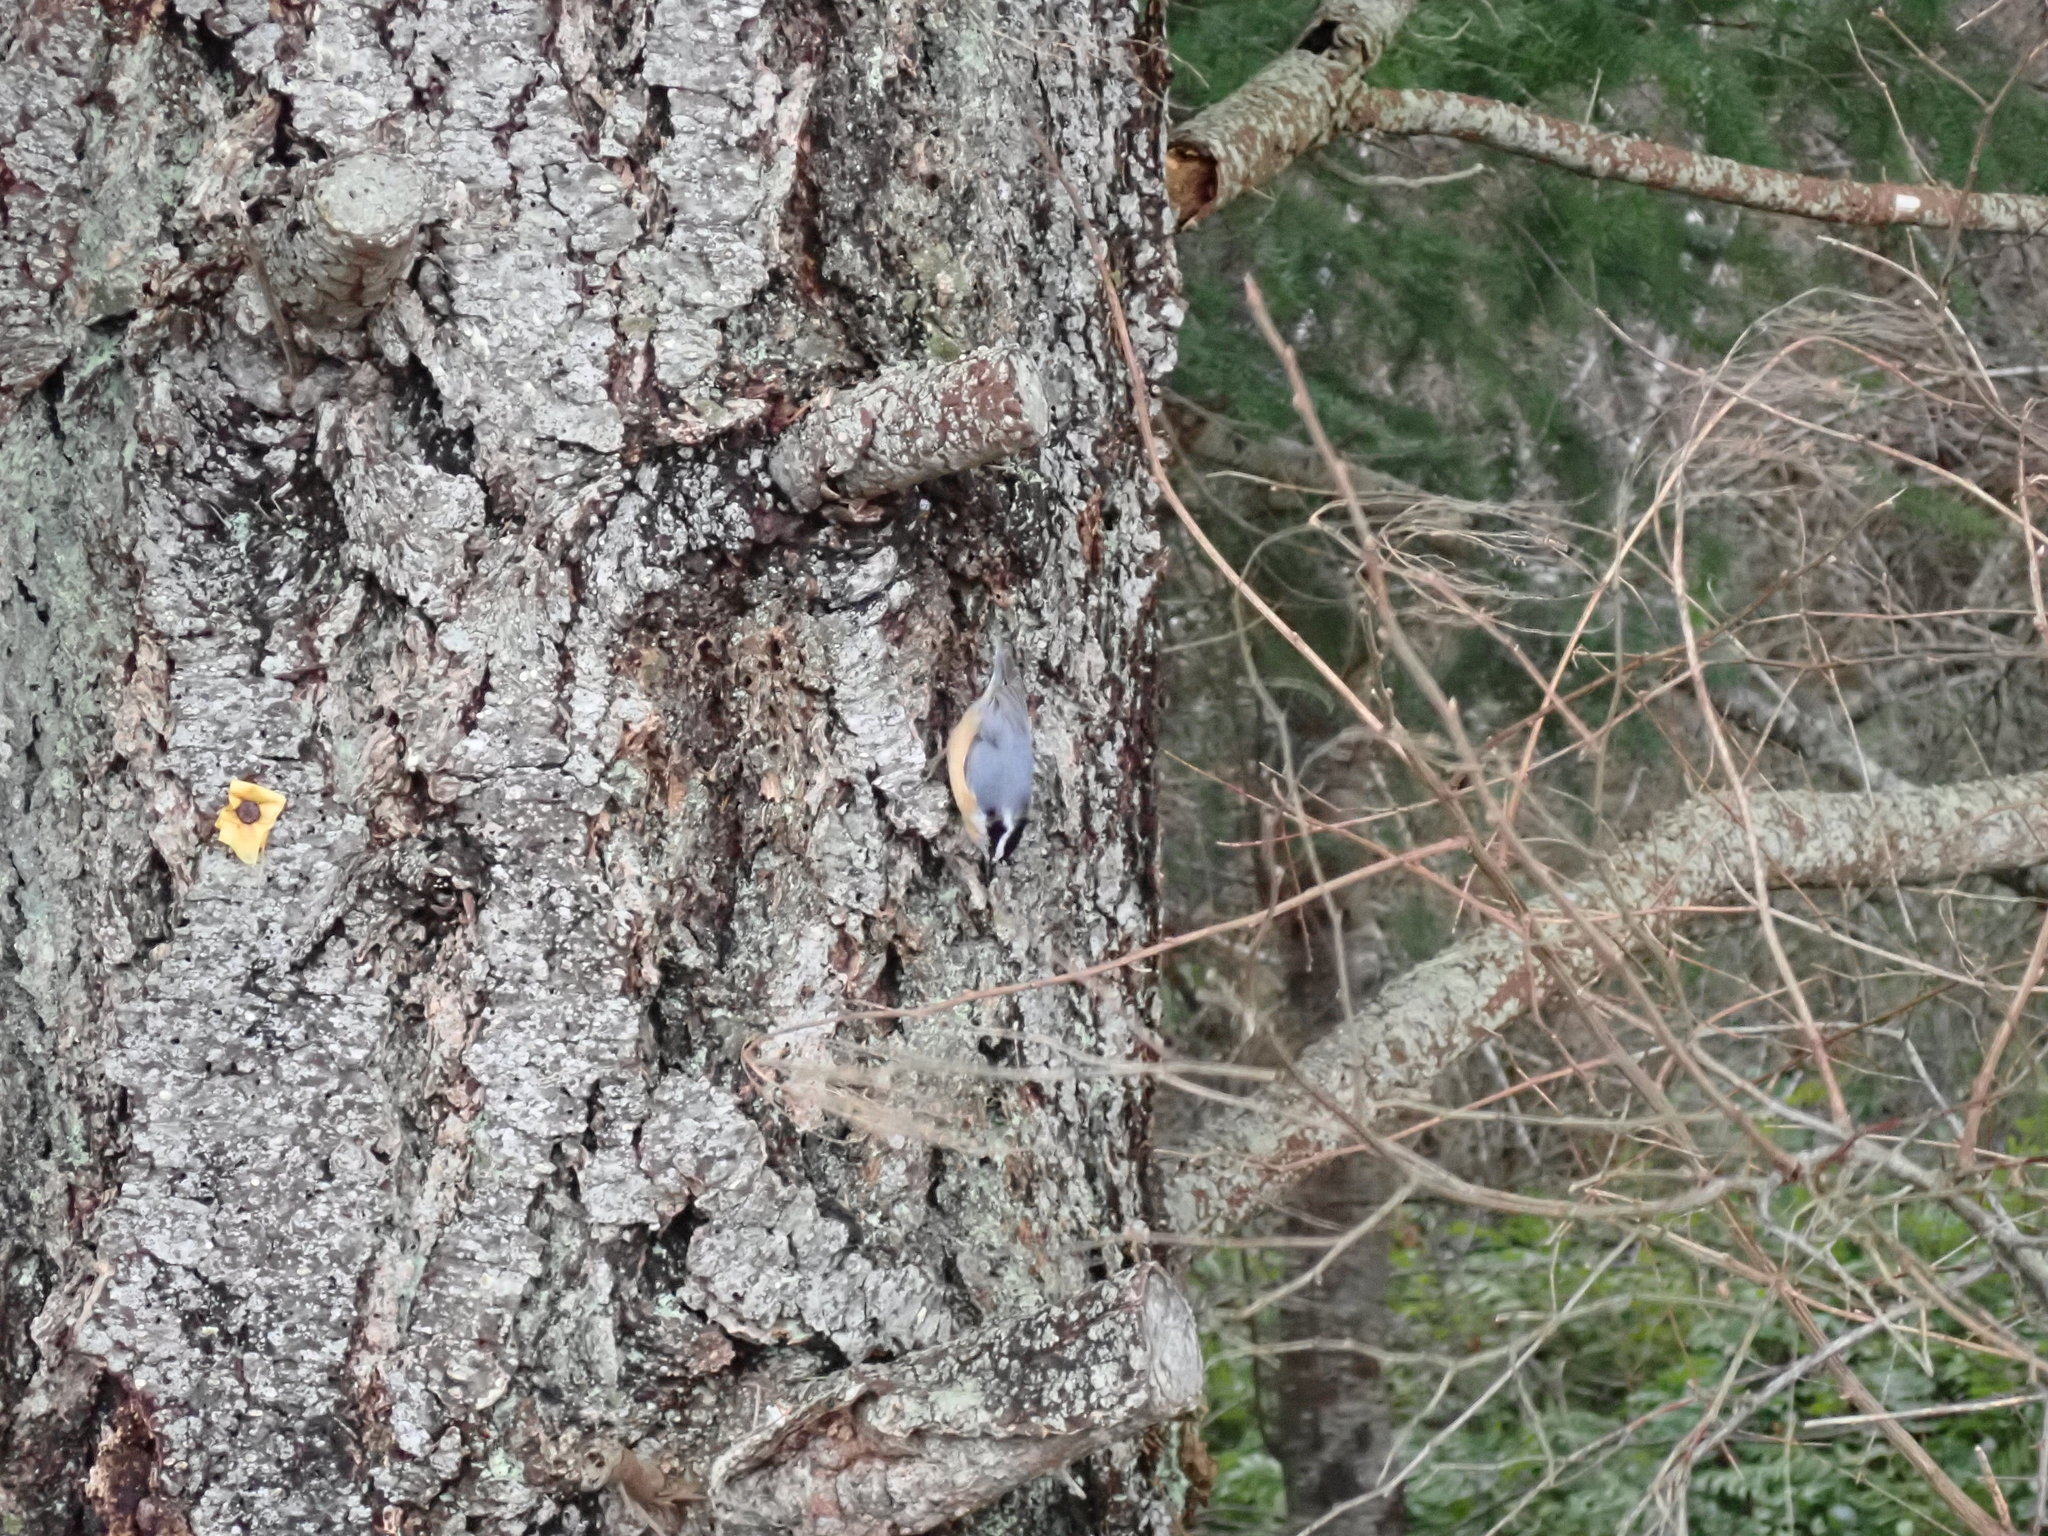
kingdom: Animalia
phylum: Chordata
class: Aves
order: Passeriformes
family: Sittidae
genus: Sitta
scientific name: Sitta canadensis
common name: Red-breasted nuthatch
